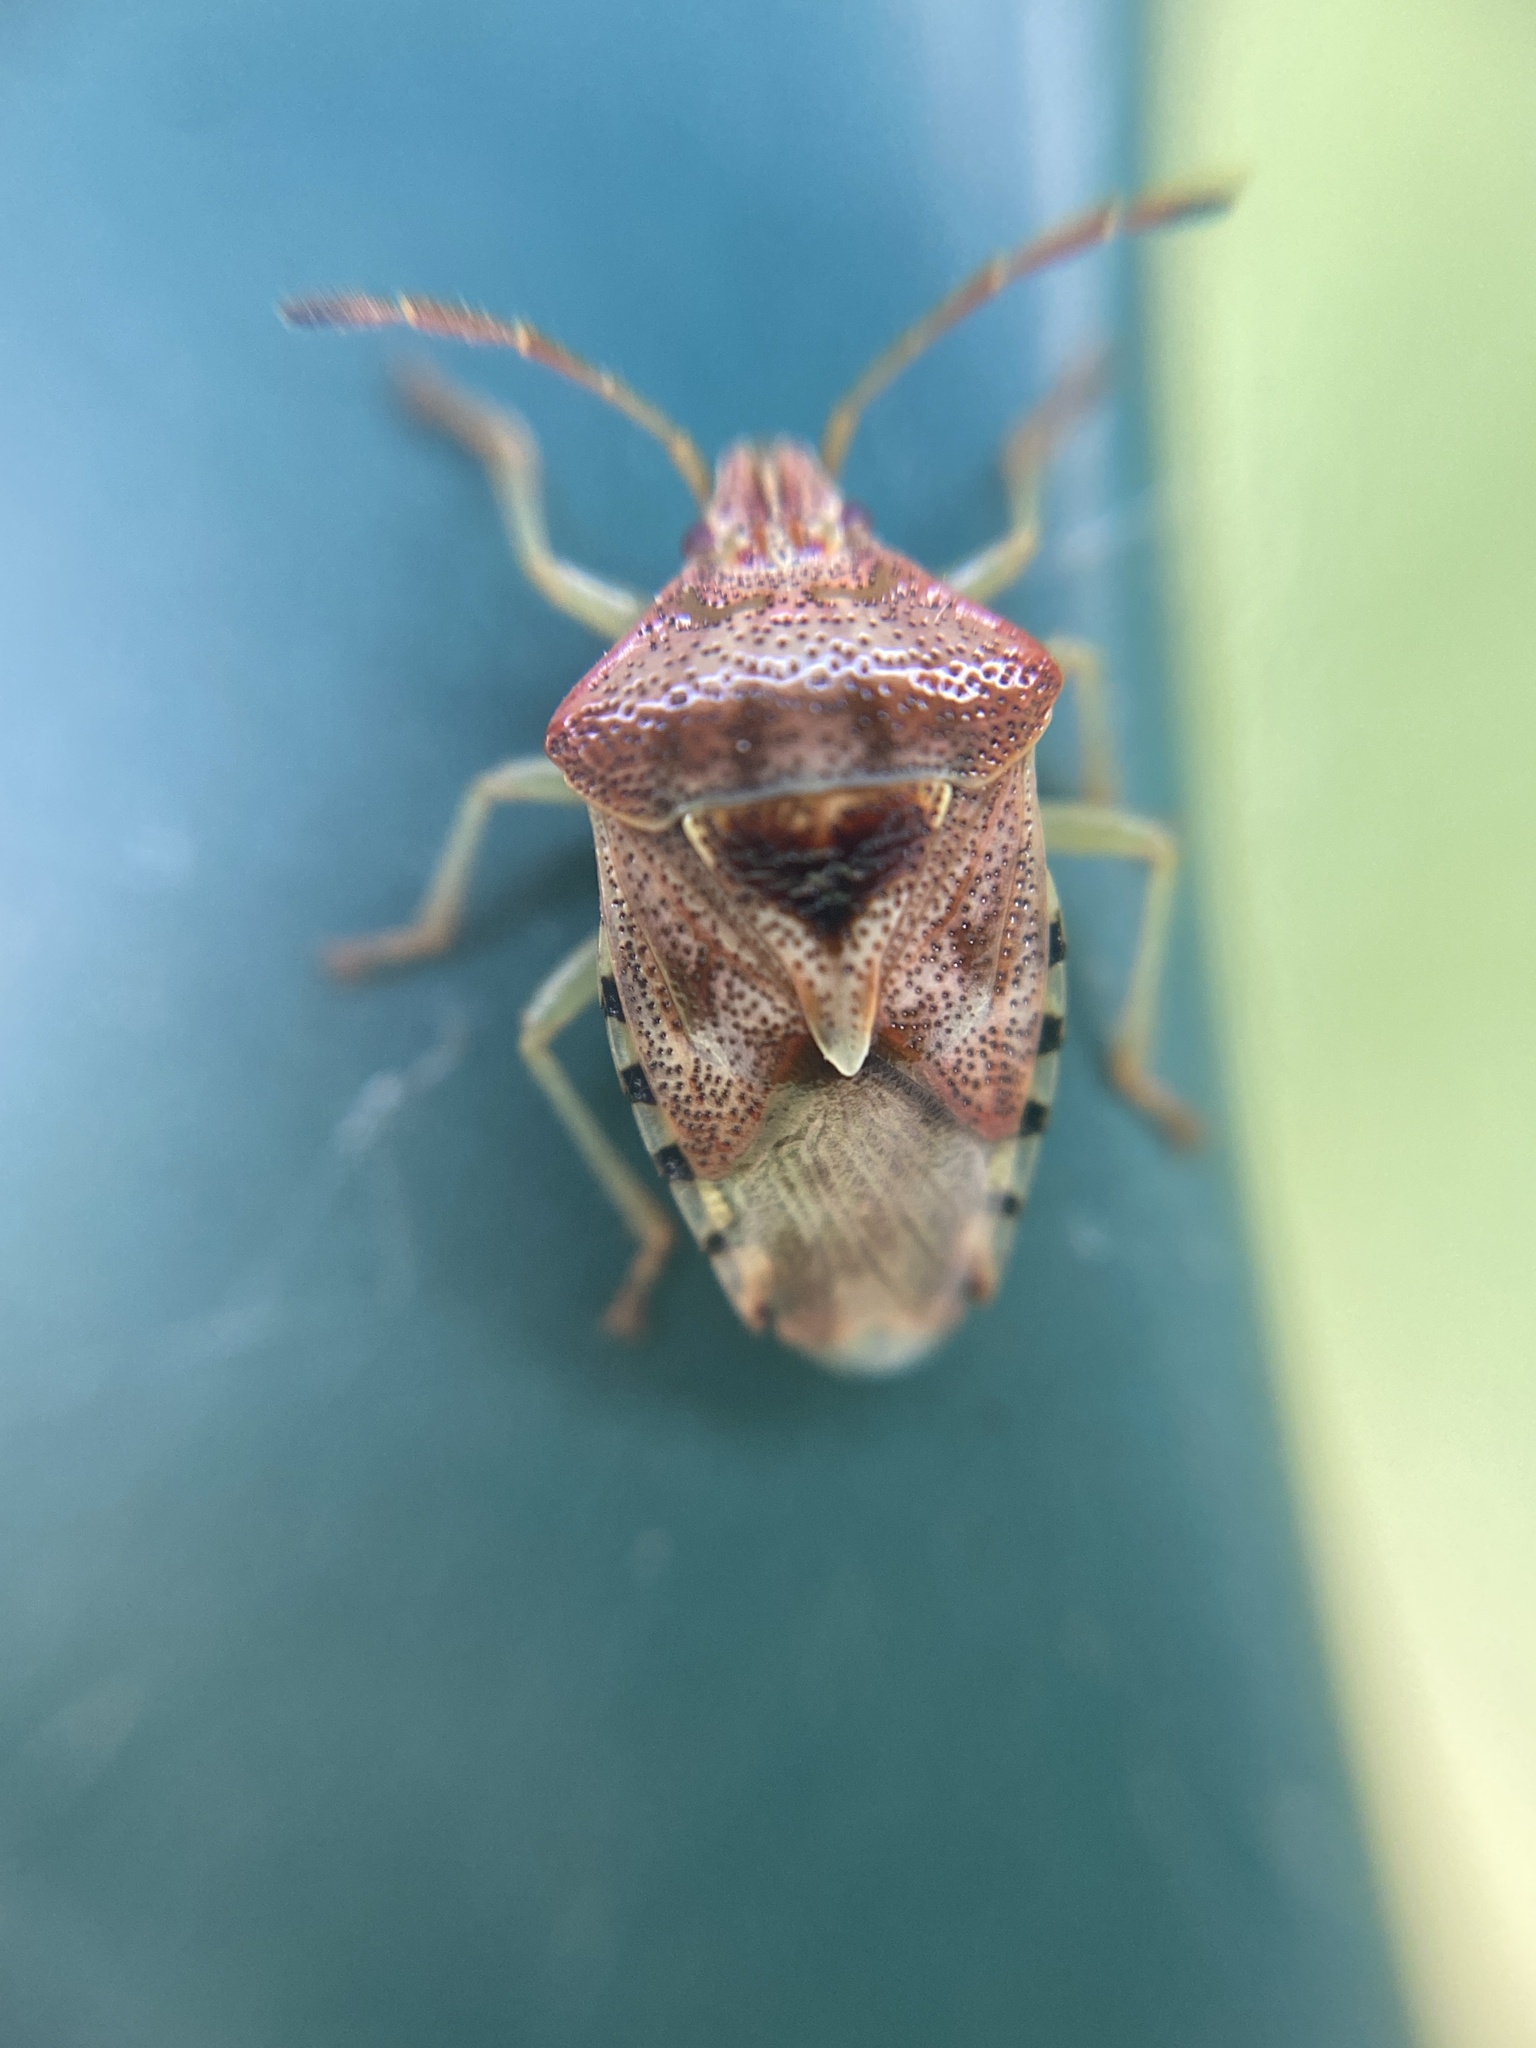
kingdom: Animalia
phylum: Arthropoda
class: Insecta
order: Hemiptera
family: Acanthosomatidae
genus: Elasmucha
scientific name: Elasmucha grisea
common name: Parent bug
